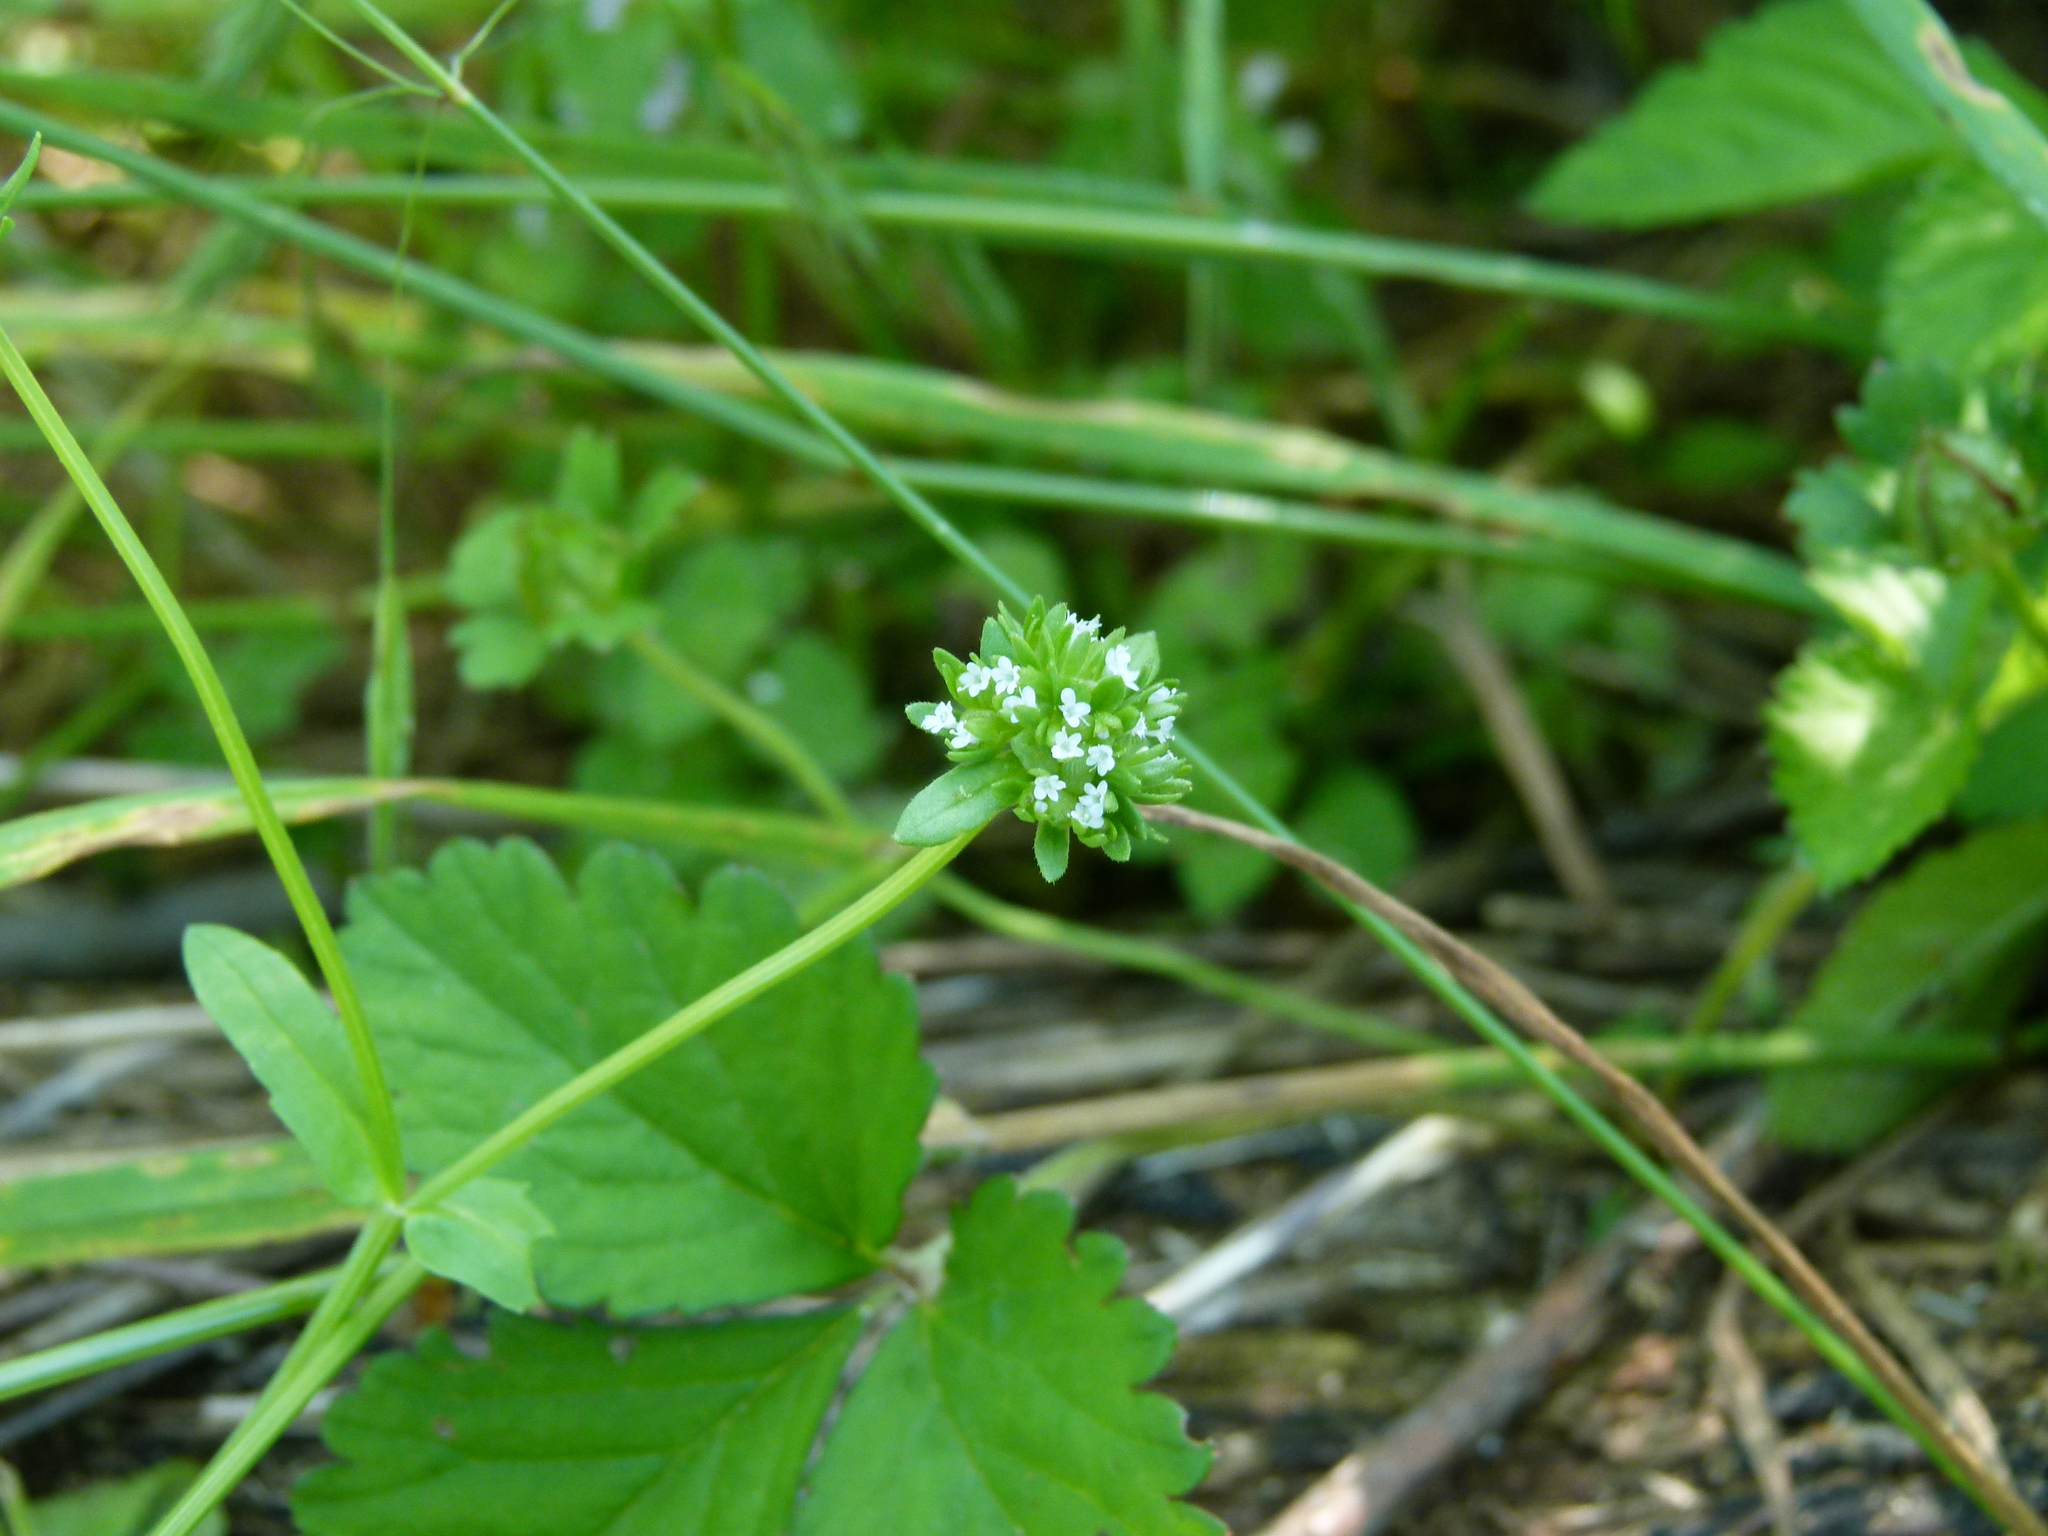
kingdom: Plantae
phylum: Tracheophyta
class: Magnoliopsida
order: Dipsacales
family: Caprifoliaceae
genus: Valerianella
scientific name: Valerianella locusta
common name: Common cornsalad
